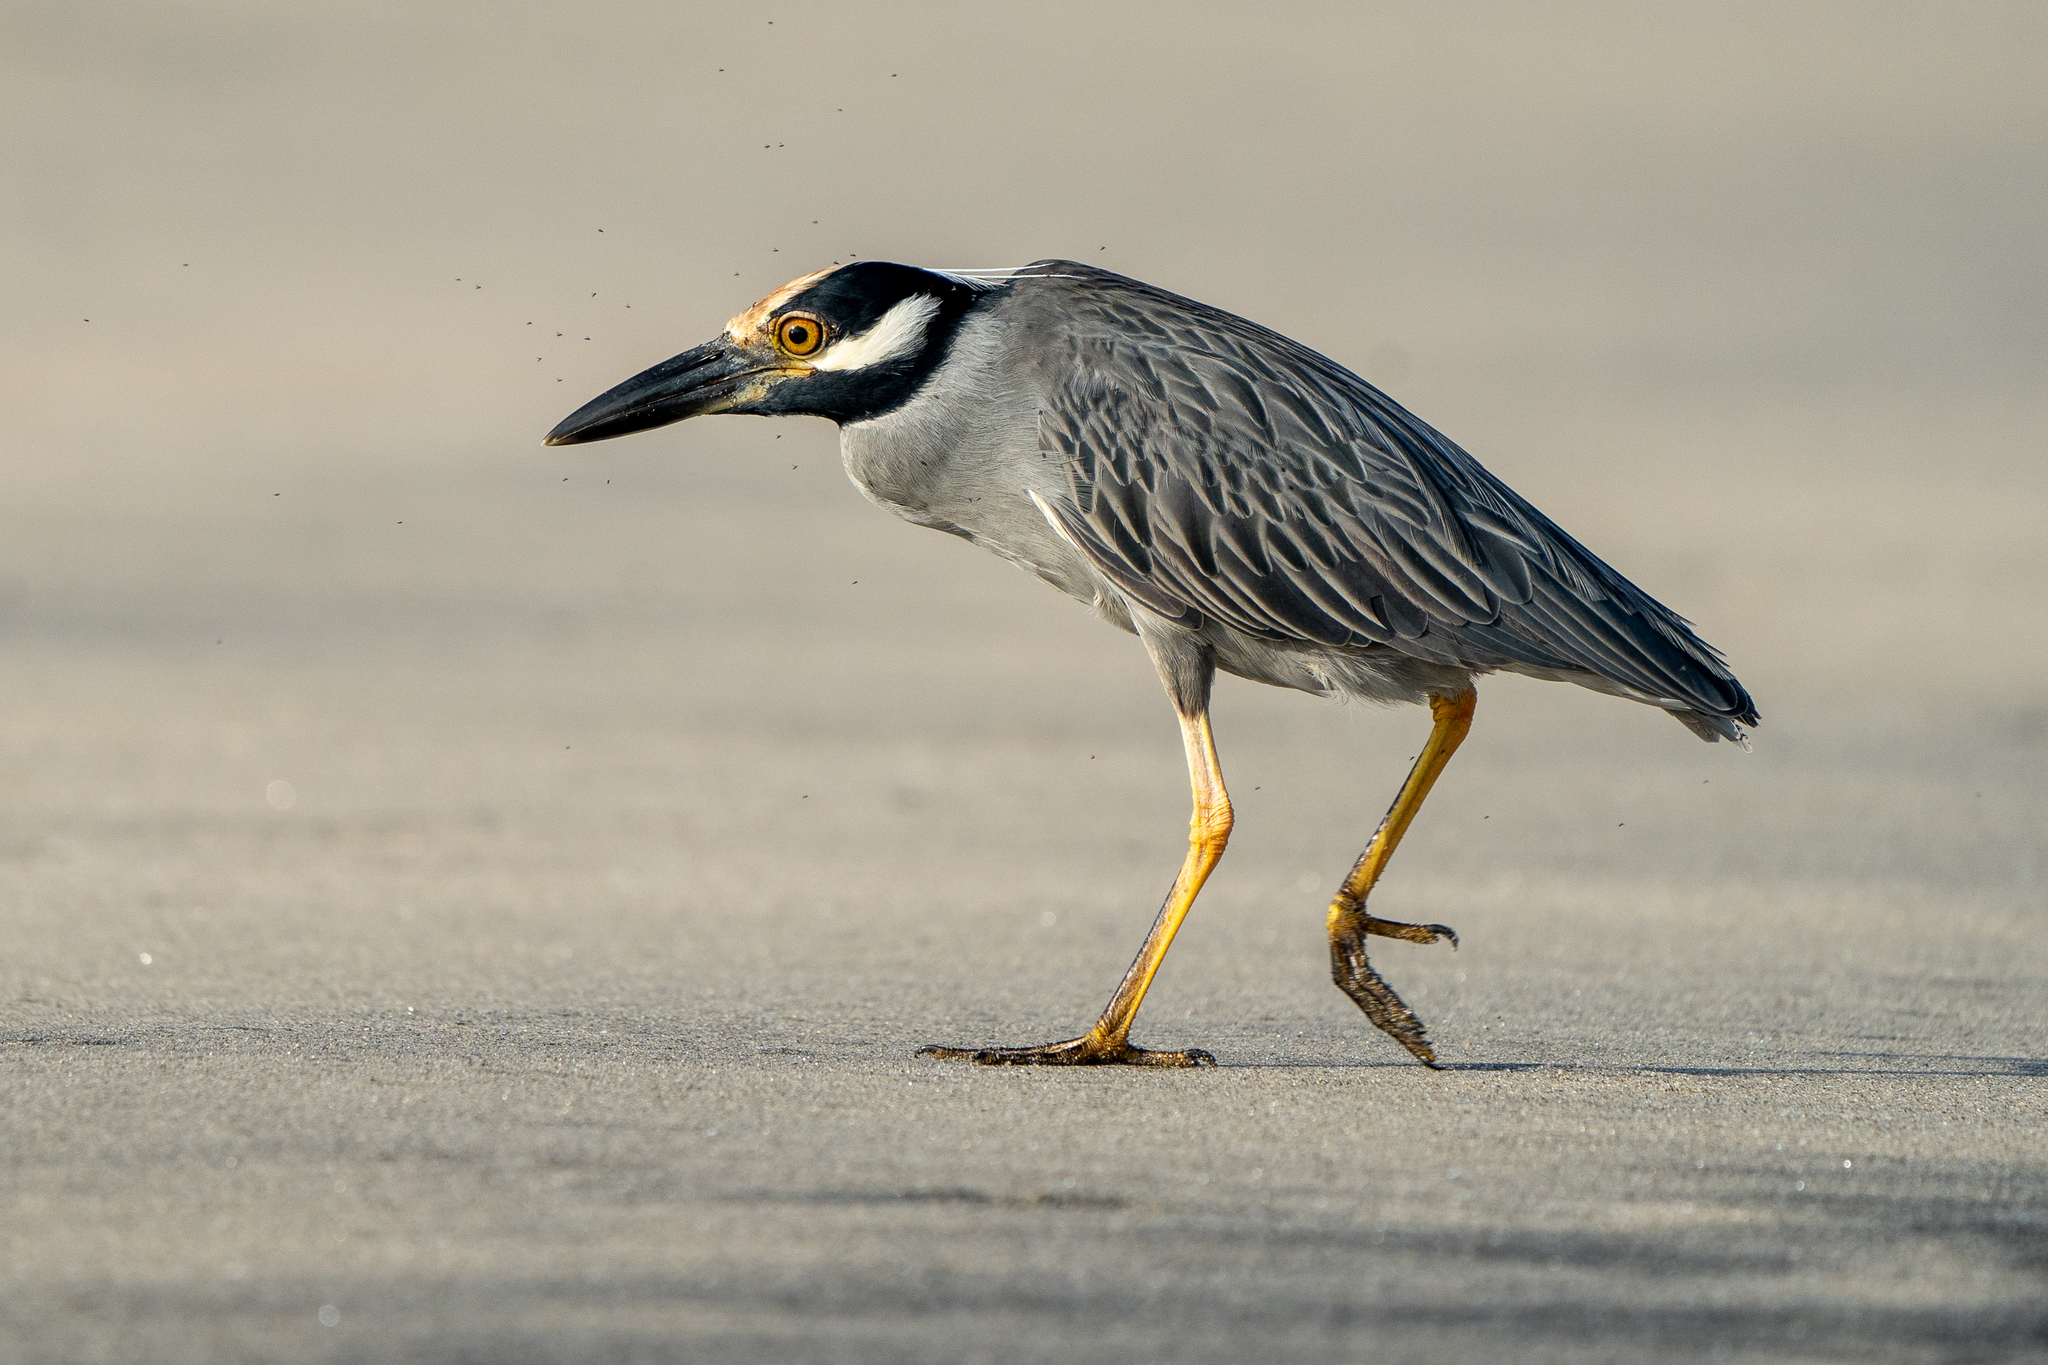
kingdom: Animalia
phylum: Chordata
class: Aves
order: Pelecaniformes
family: Ardeidae
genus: Nyctanassa
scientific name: Nyctanassa violacea
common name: Yellow-crowned night heron
